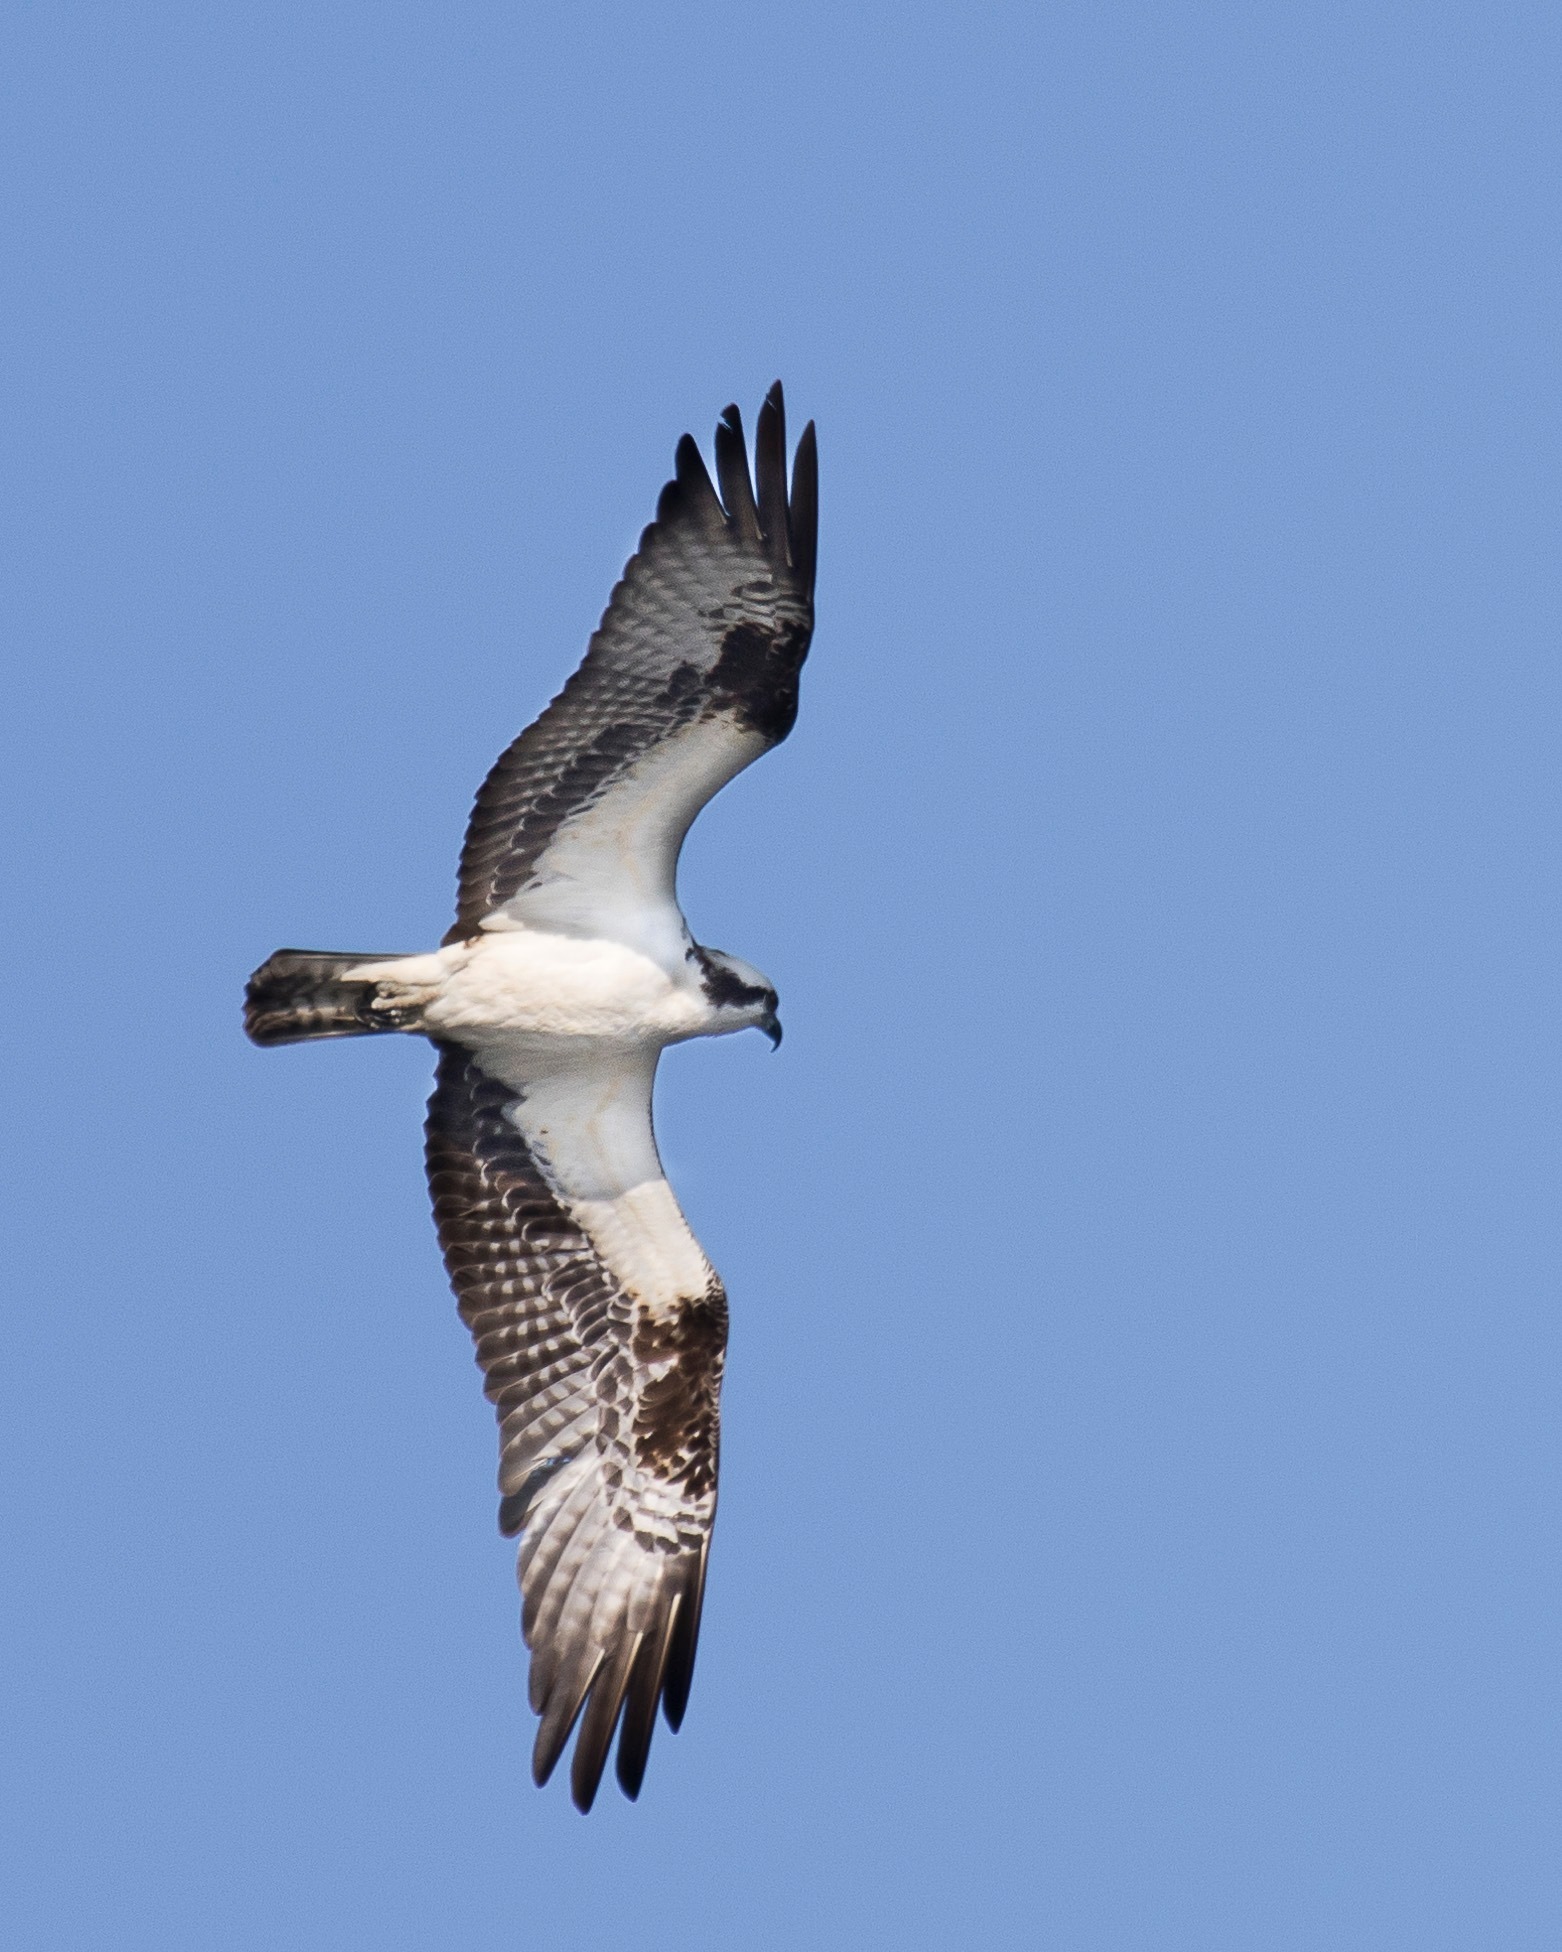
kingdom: Animalia
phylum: Chordata
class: Aves
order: Accipitriformes
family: Pandionidae
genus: Pandion
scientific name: Pandion haliaetus
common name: Osprey
